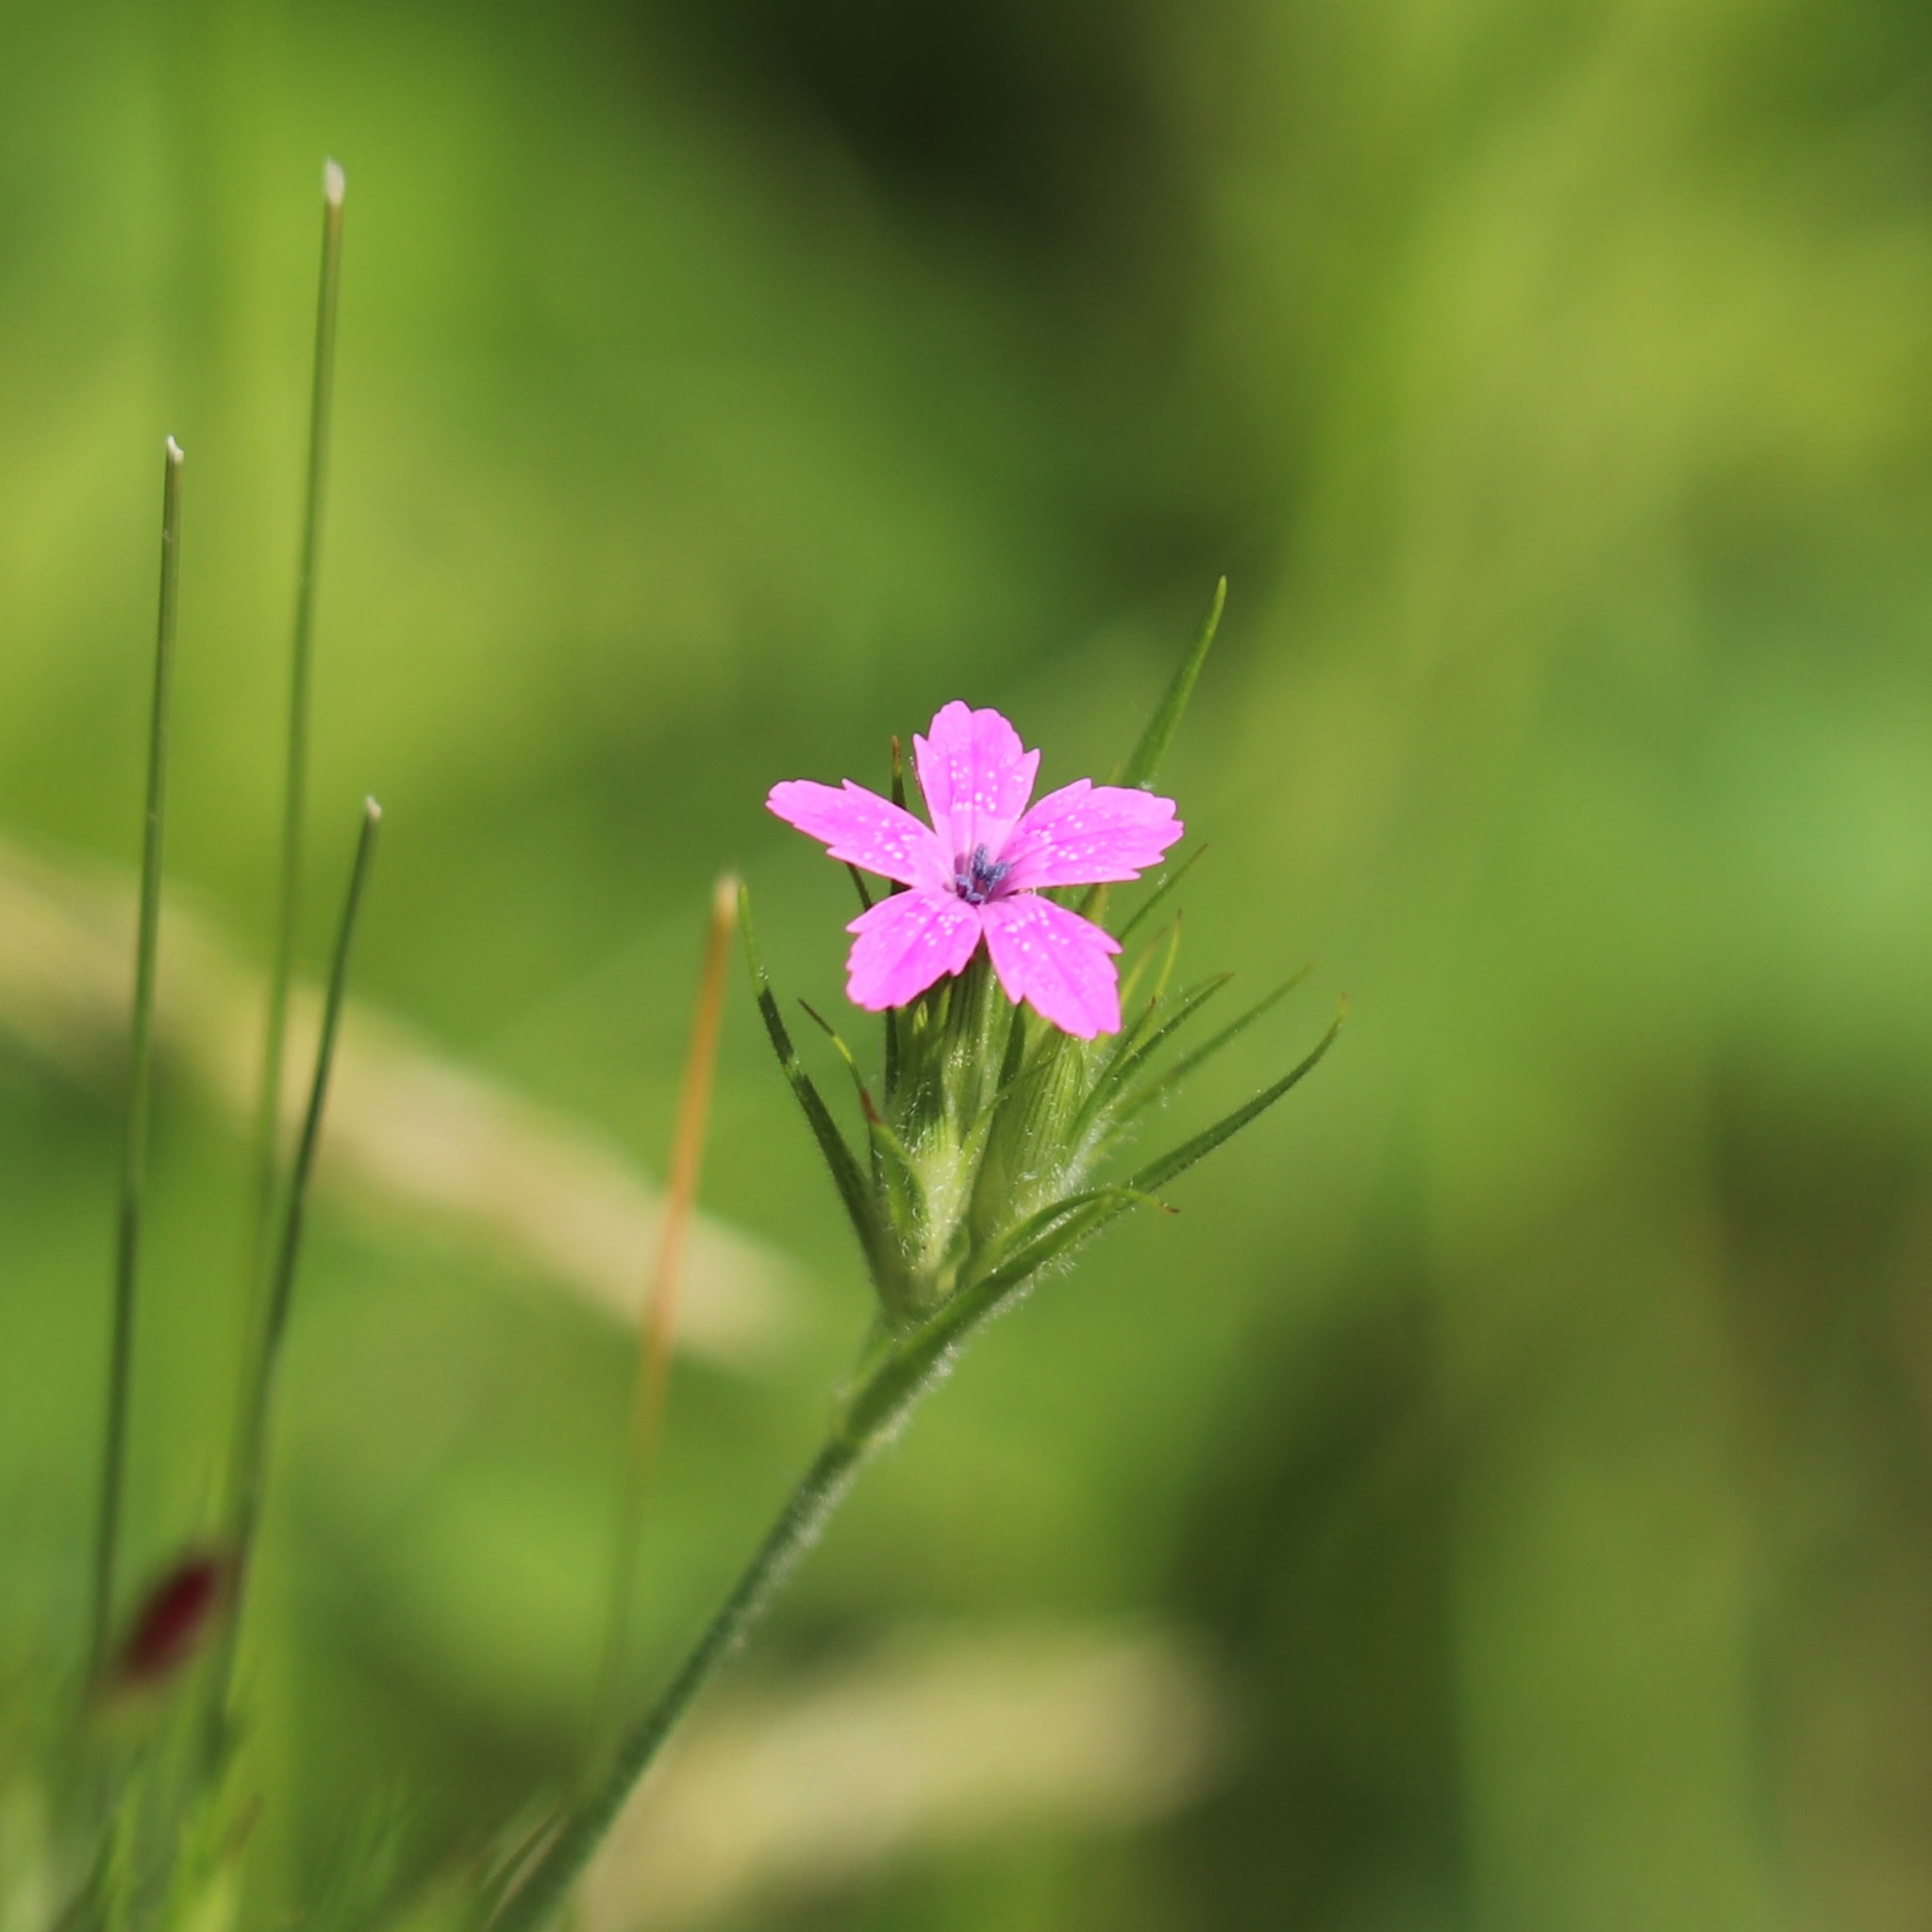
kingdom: Plantae
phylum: Tracheophyta
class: Magnoliopsida
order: Caryophyllales
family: Caryophyllaceae
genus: Dianthus
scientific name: Dianthus armeria
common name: Deptford pink
